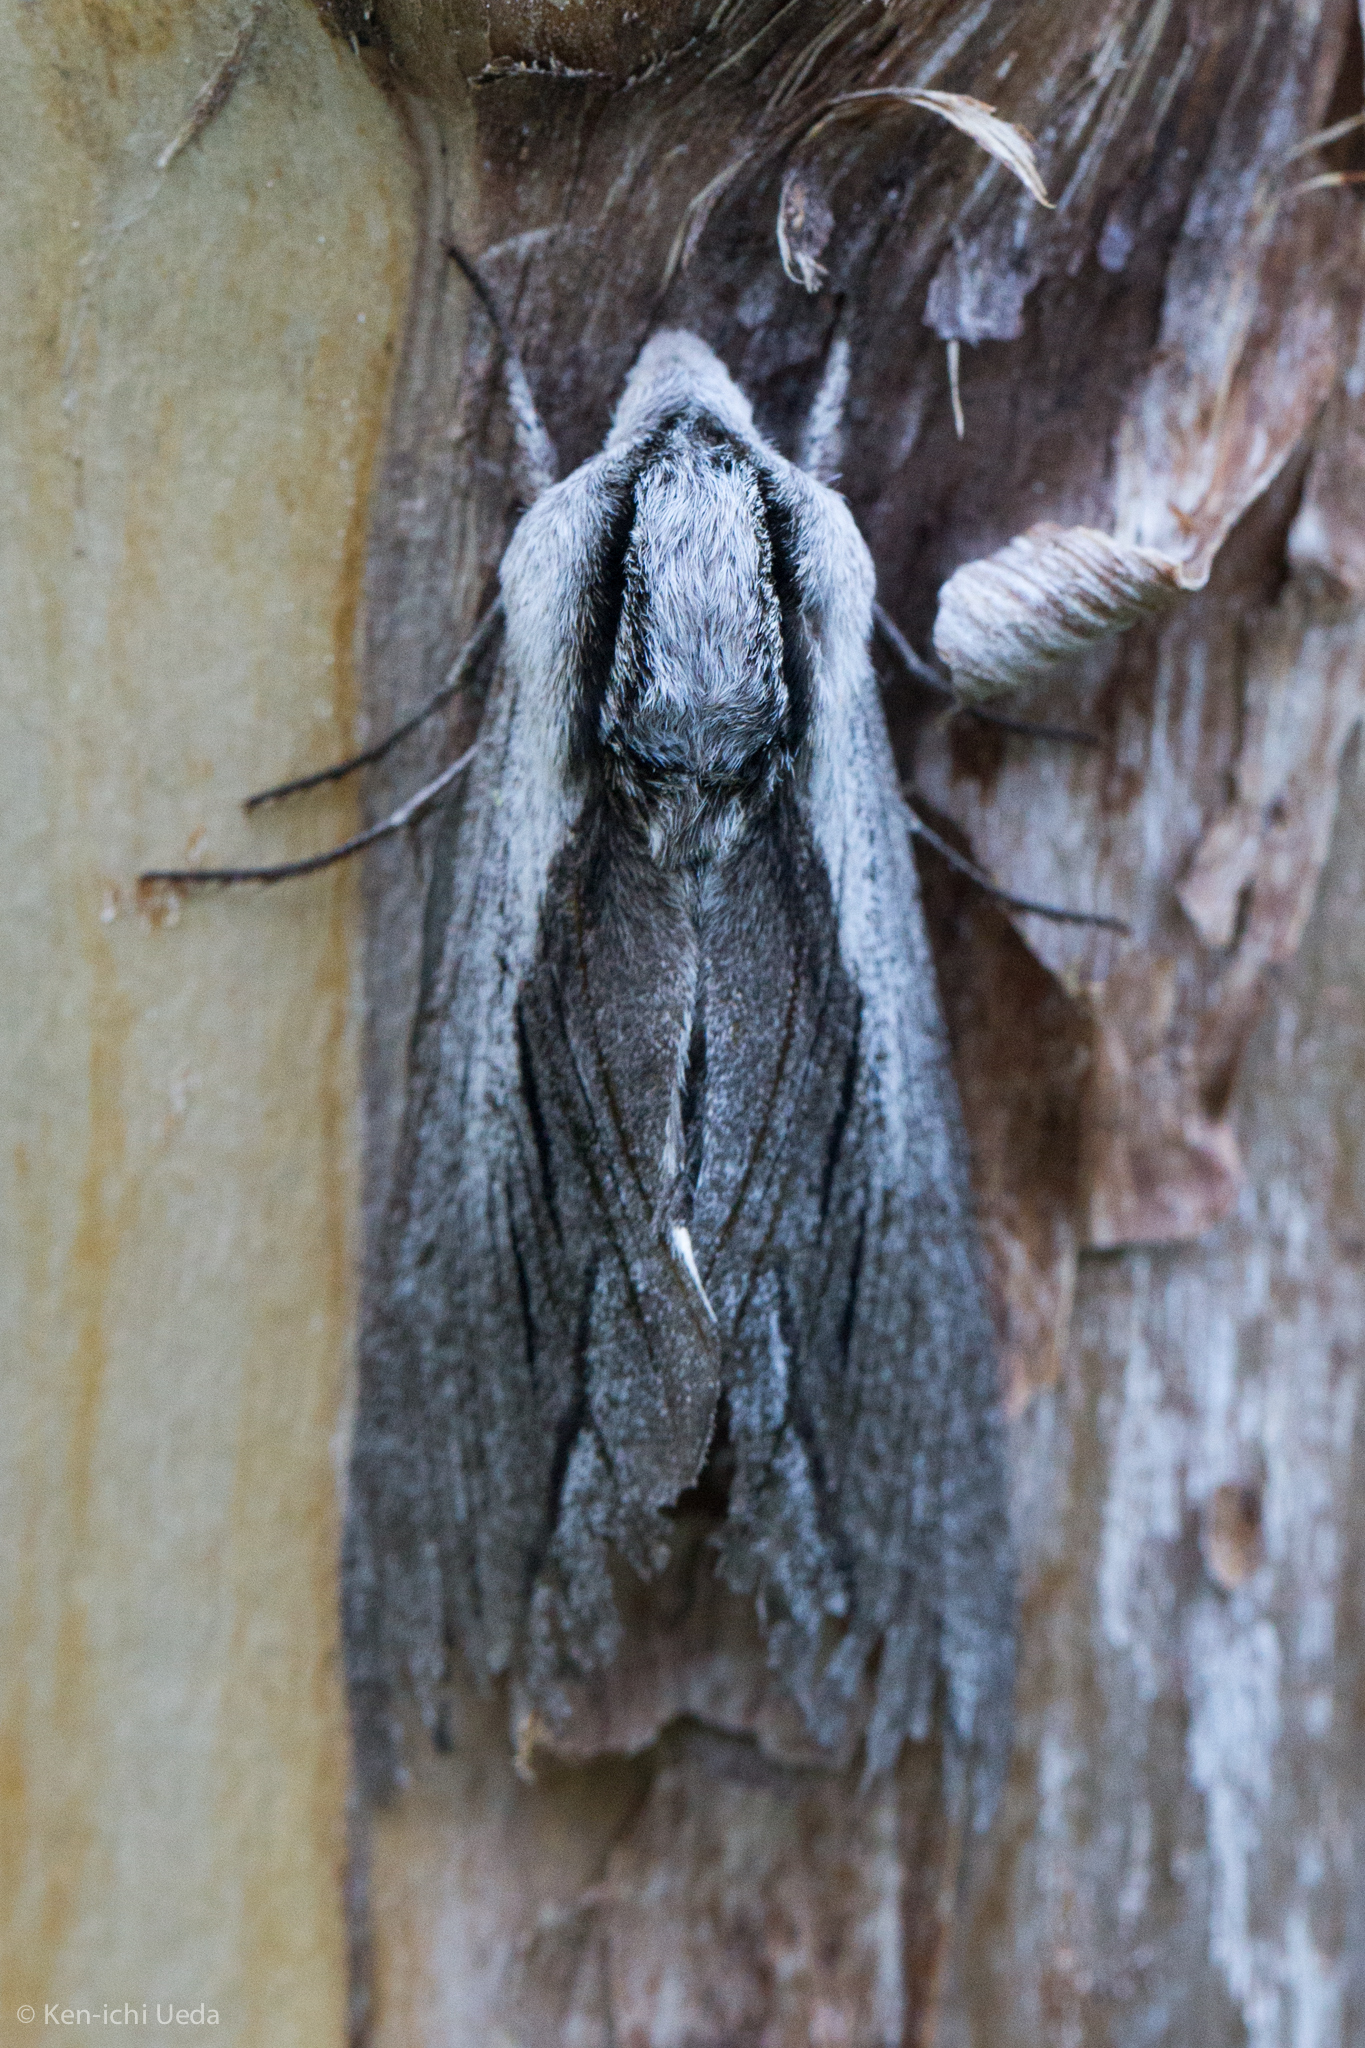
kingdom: Animalia
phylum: Arthropoda
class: Insecta
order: Lepidoptera
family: Sphingidae
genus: Sphinx
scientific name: Sphinx vashti
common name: Snowberry sphinx
